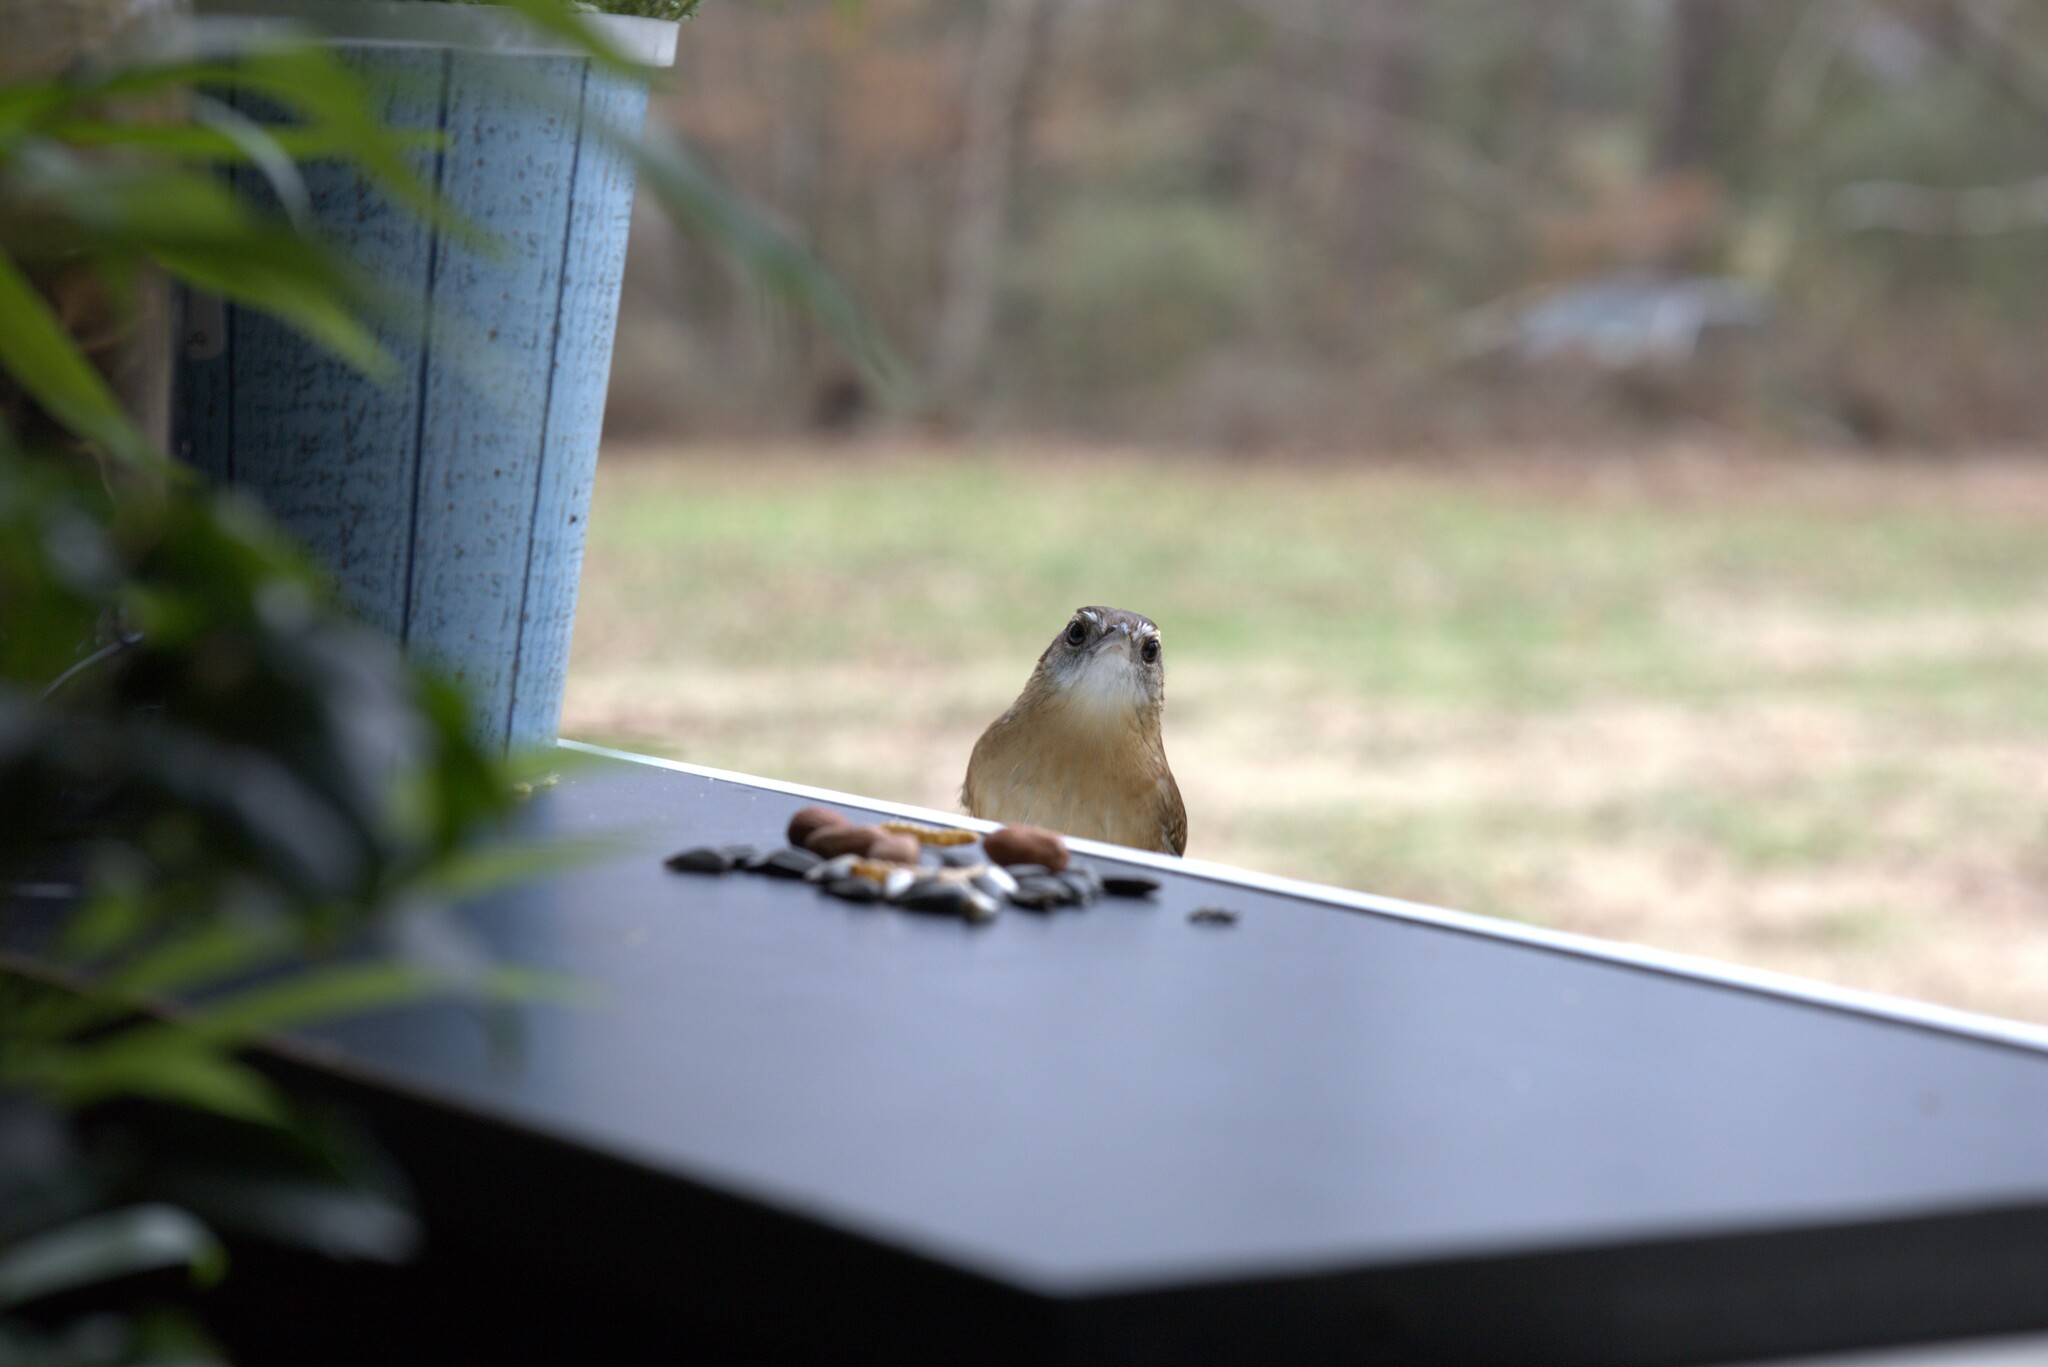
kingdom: Animalia
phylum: Chordata
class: Aves
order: Passeriformes
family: Troglodytidae
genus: Thryothorus
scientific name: Thryothorus ludovicianus
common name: Carolina wren
